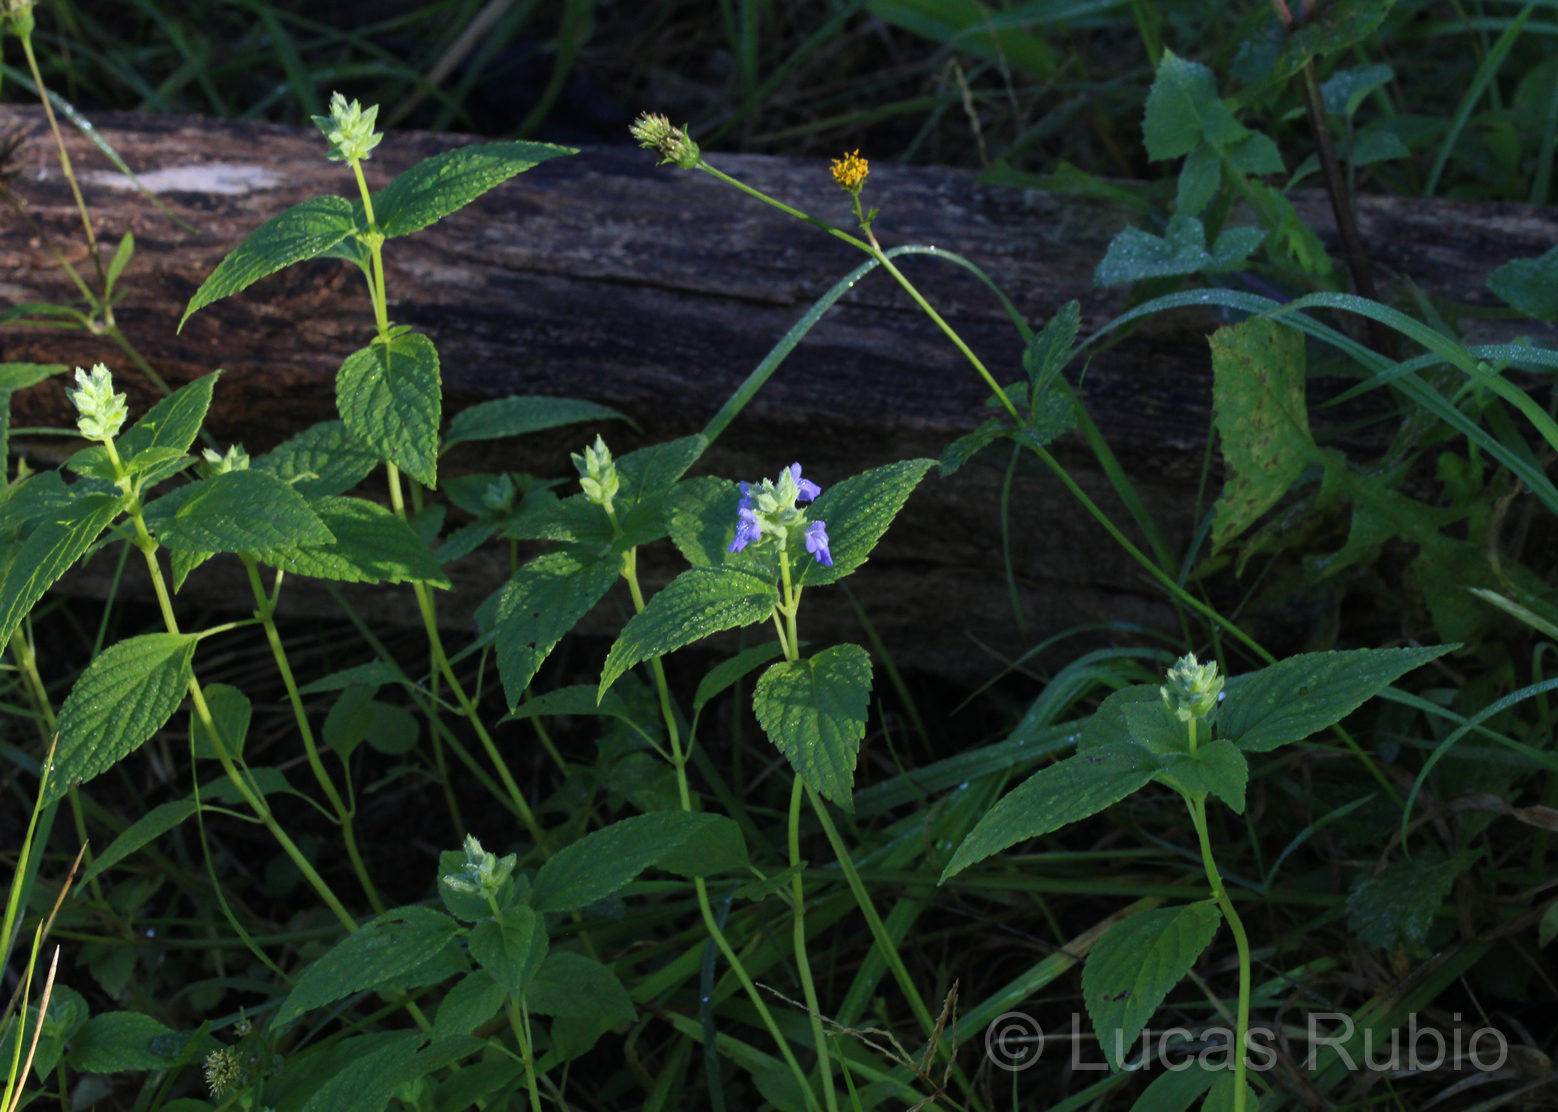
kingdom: Plantae
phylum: Tracheophyta
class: Magnoliopsida
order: Lamiales
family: Lamiaceae
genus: Salvia
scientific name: Salvia hispanica
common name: Chia
